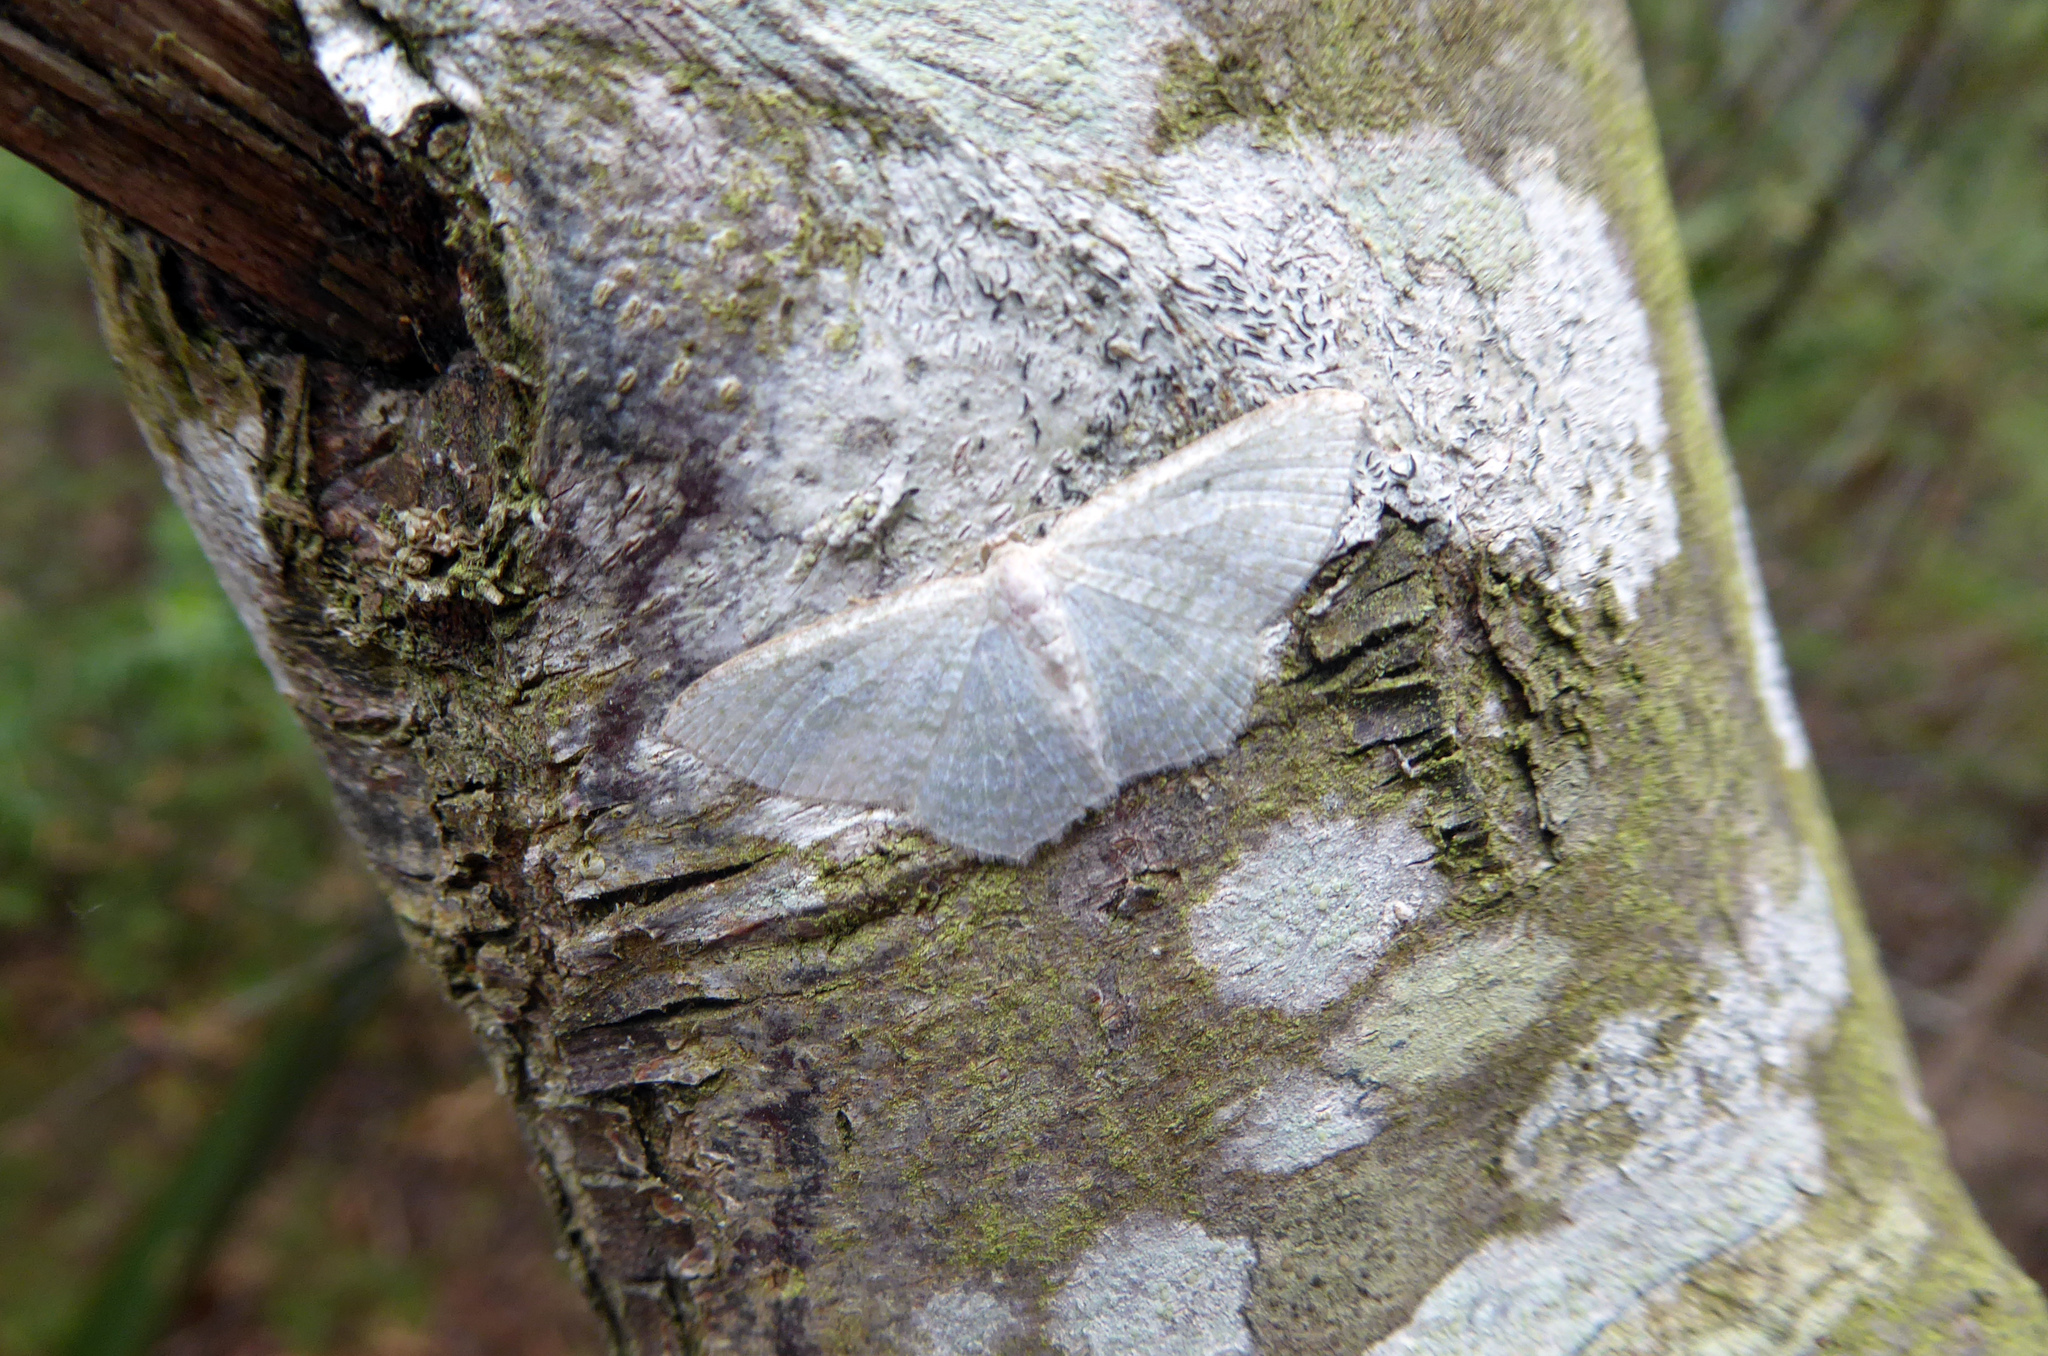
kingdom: Animalia
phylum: Arthropoda
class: Insecta
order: Lepidoptera
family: Geometridae
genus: Poecilasthena
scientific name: Poecilasthena pulchraria
